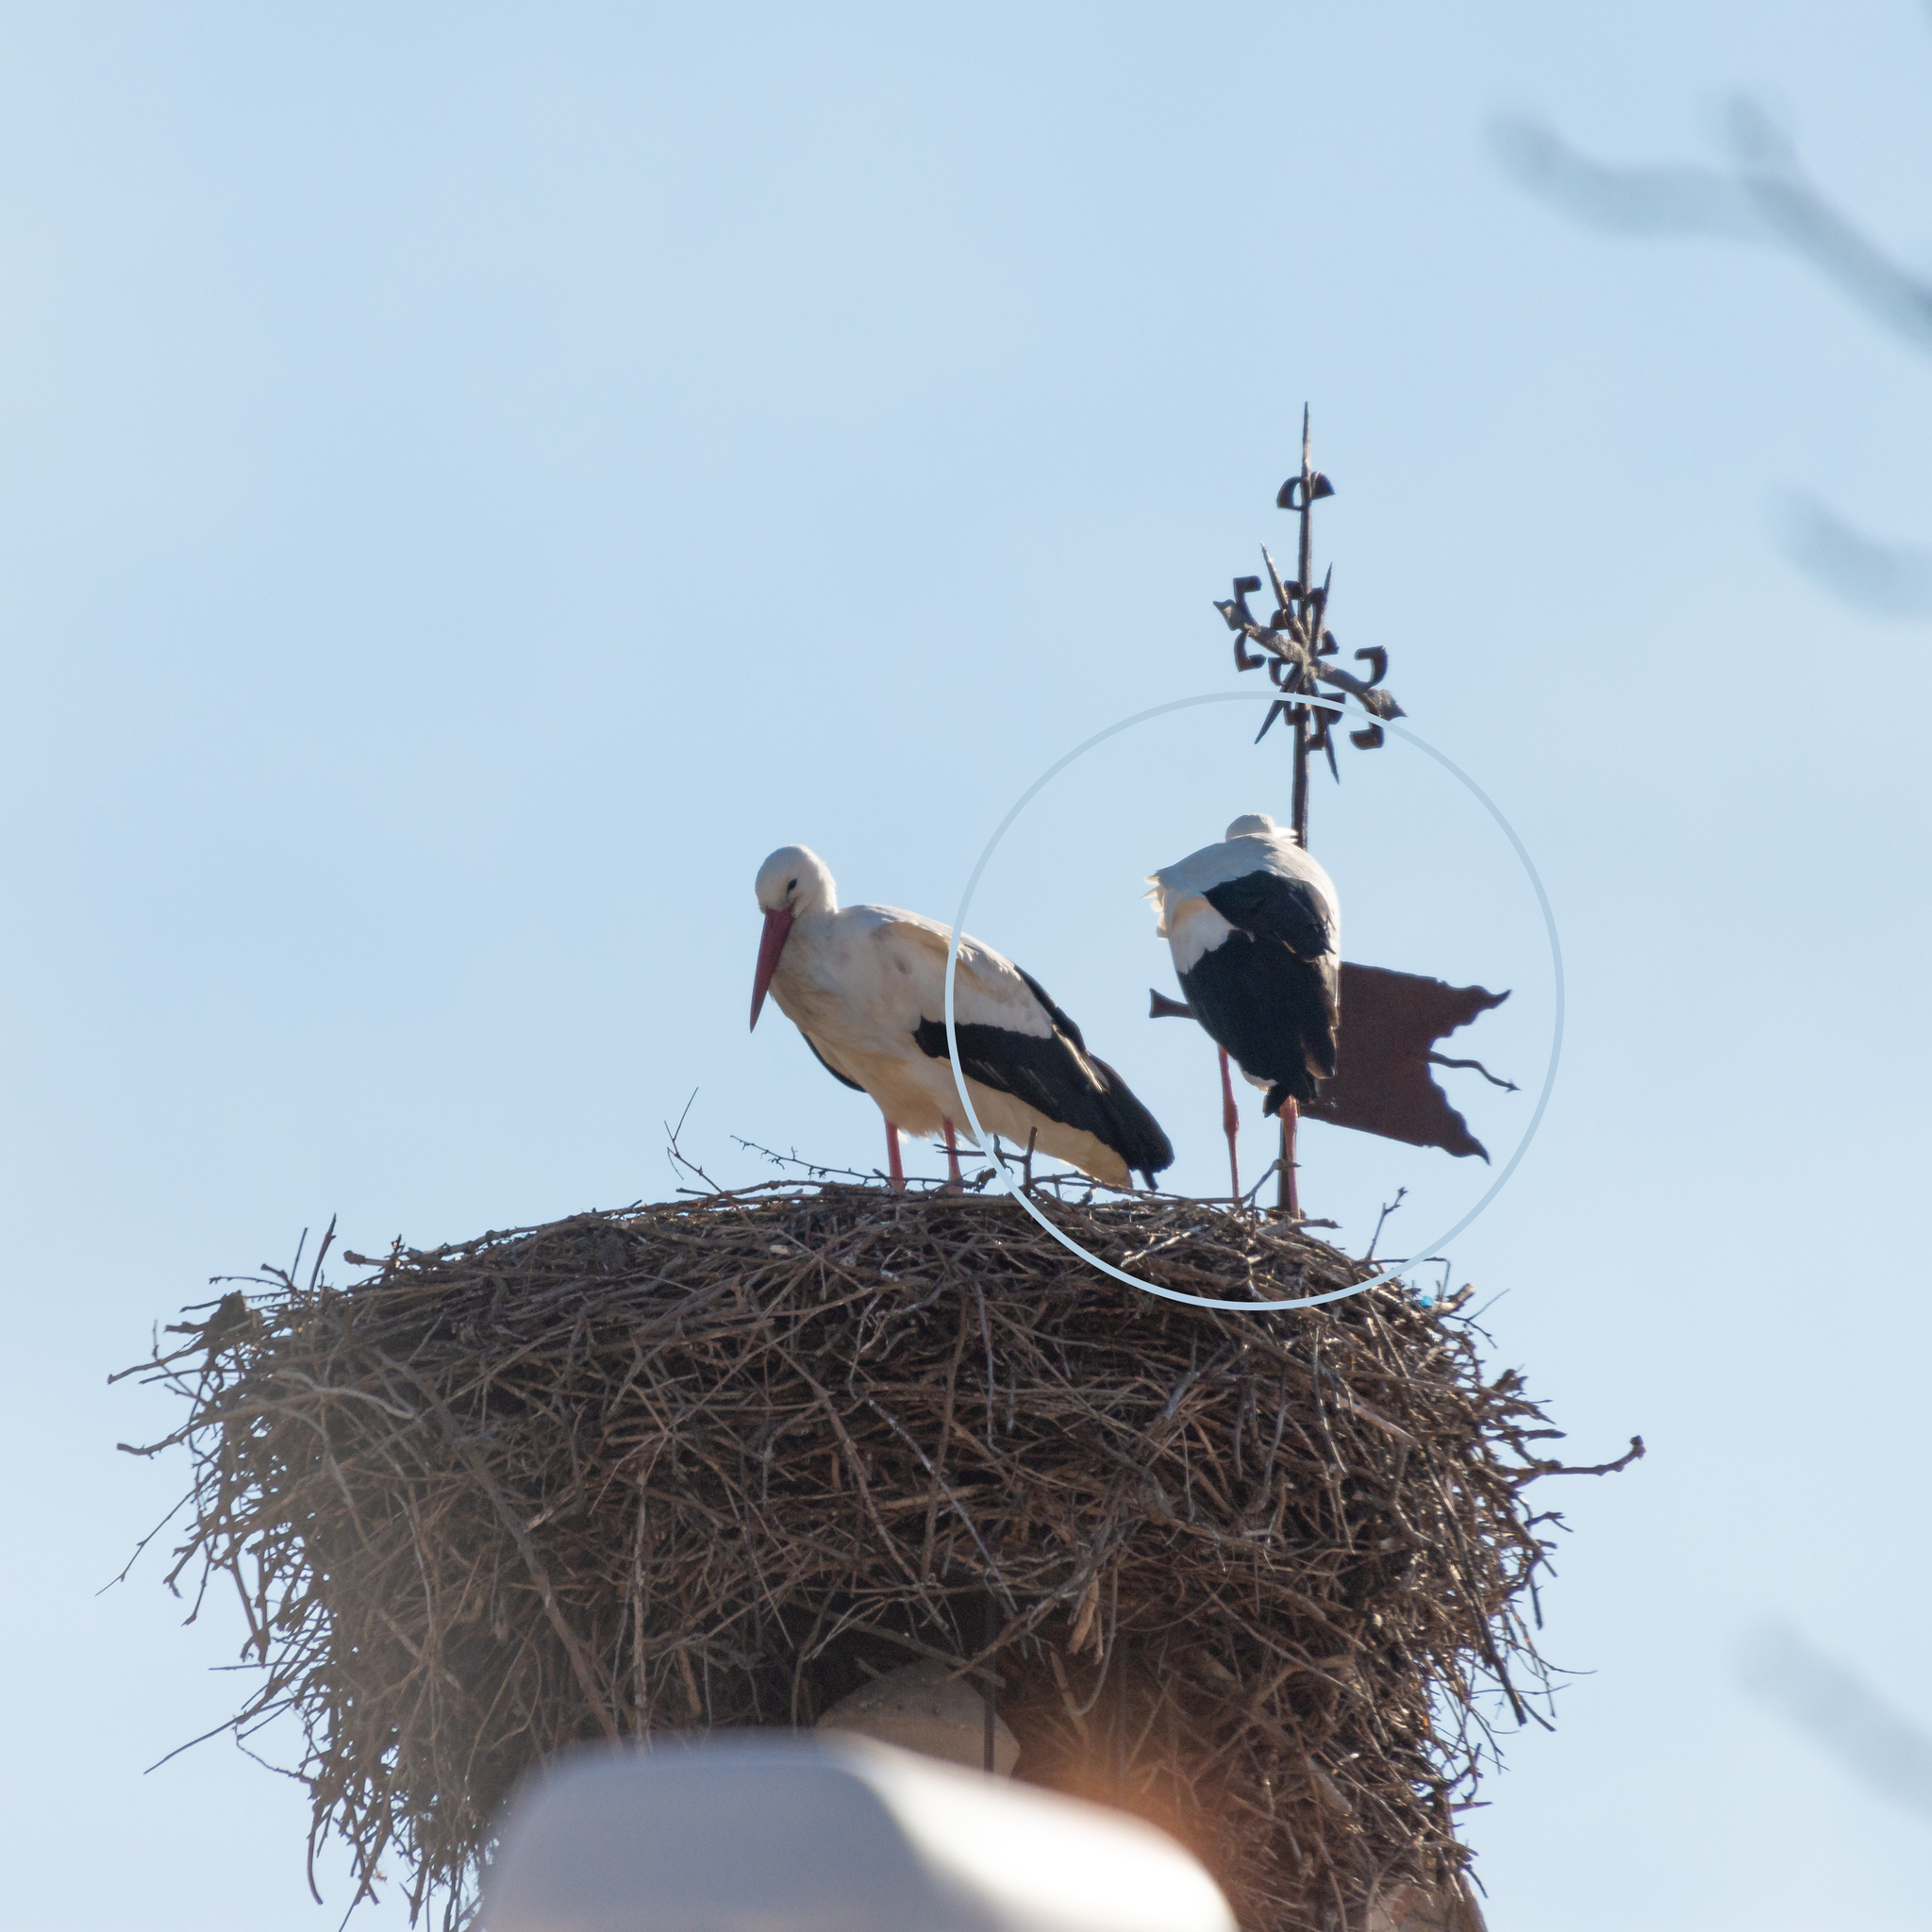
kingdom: Animalia
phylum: Chordata
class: Aves
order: Ciconiiformes
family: Ciconiidae
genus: Ciconia
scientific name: Ciconia ciconia
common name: White stork
